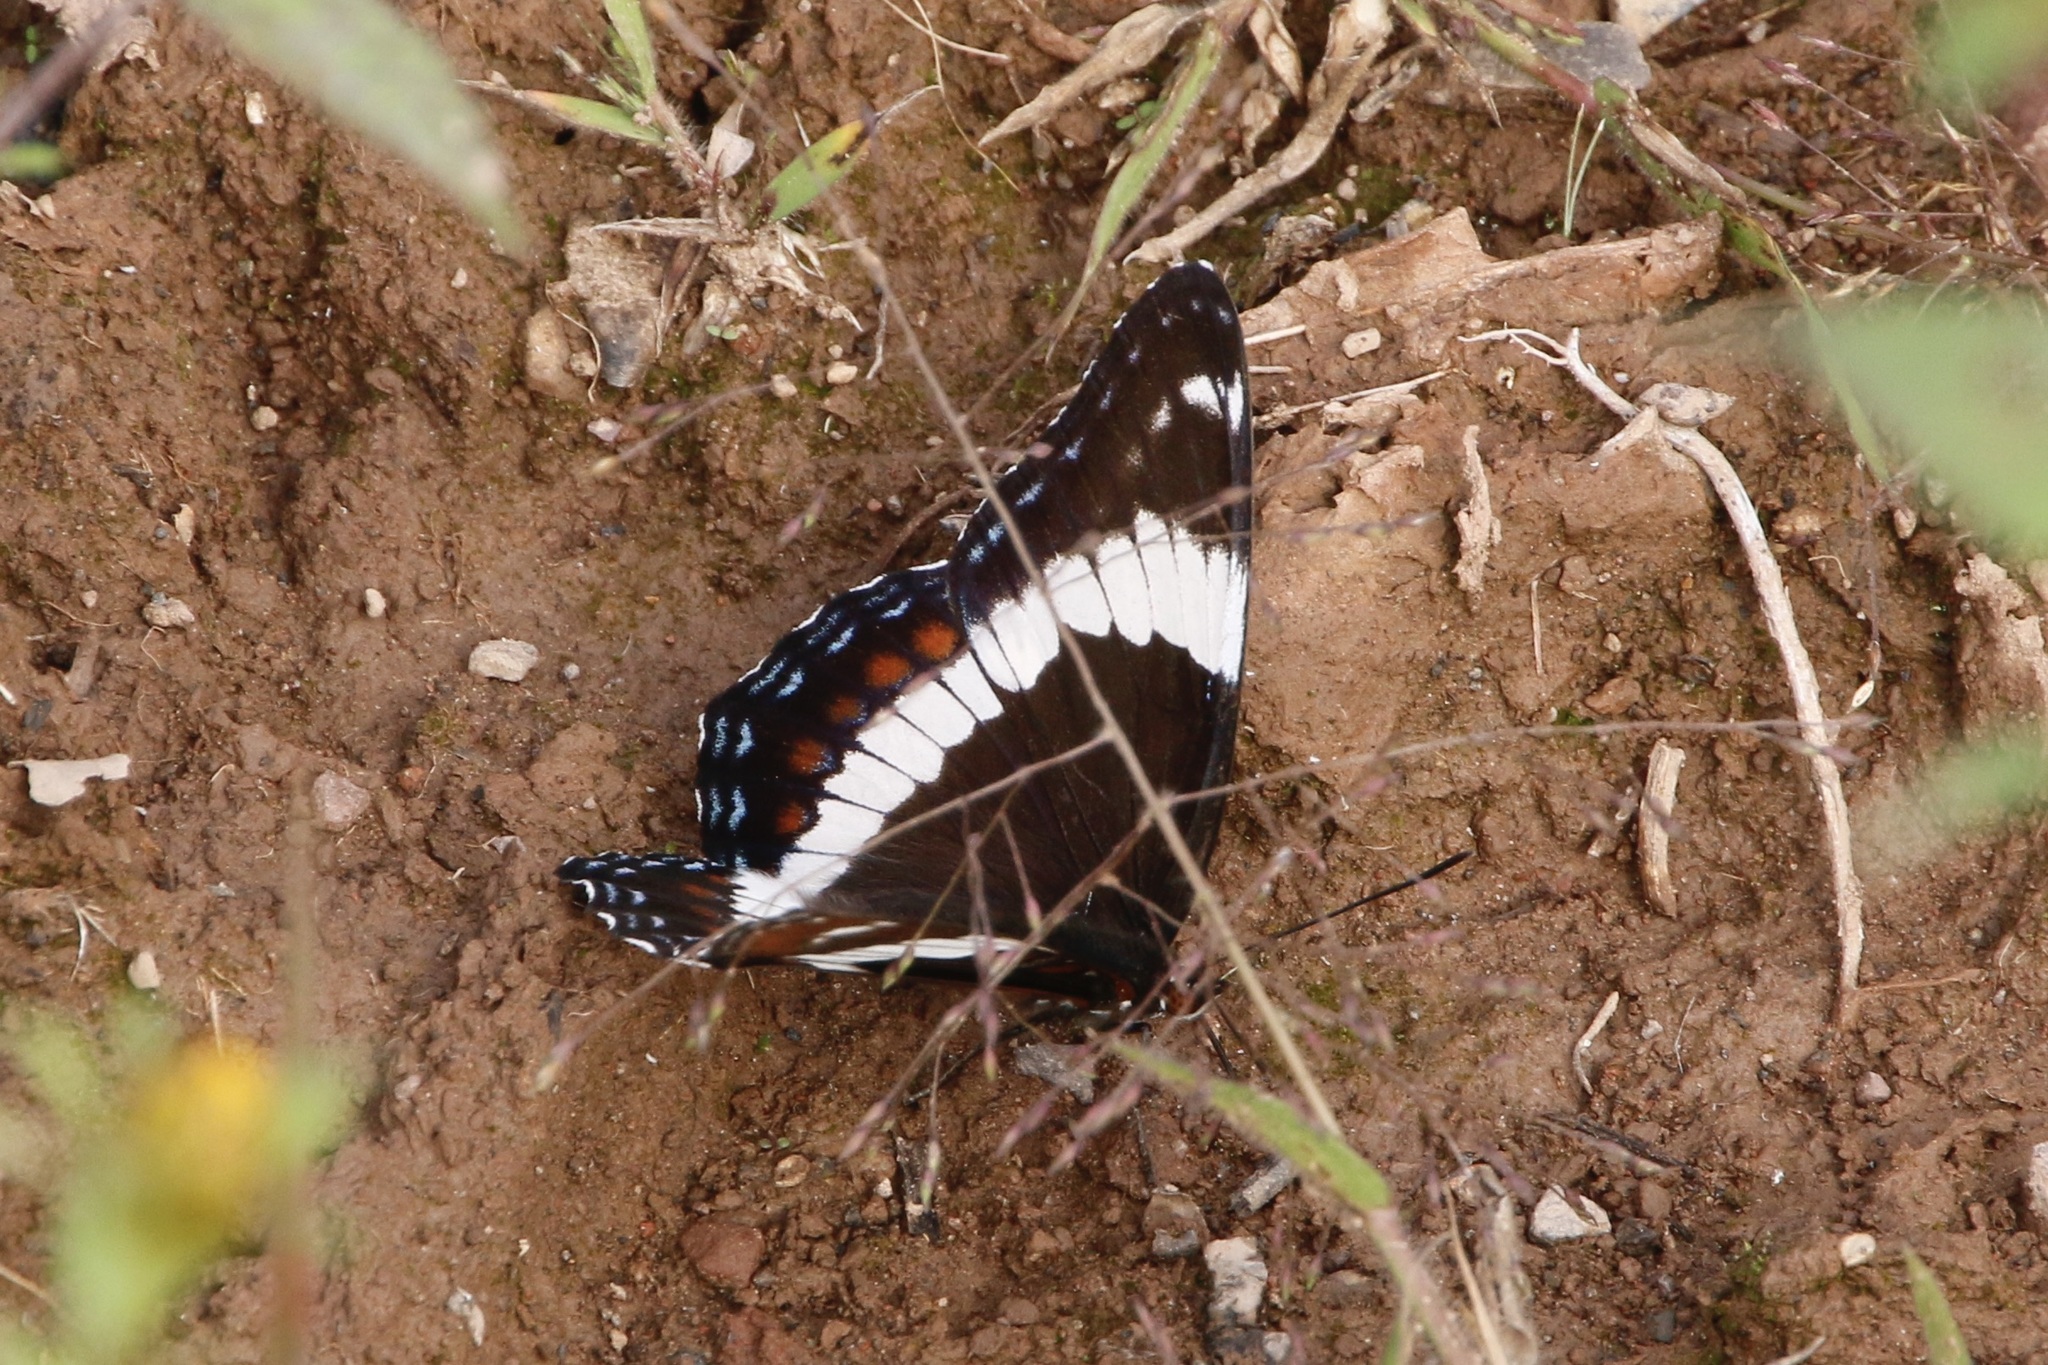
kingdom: Animalia
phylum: Arthropoda
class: Insecta
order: Lepidoptera
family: Nymphalidae
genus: Limenitis
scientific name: Limenitis arthemis
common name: Red-spotted admiral
